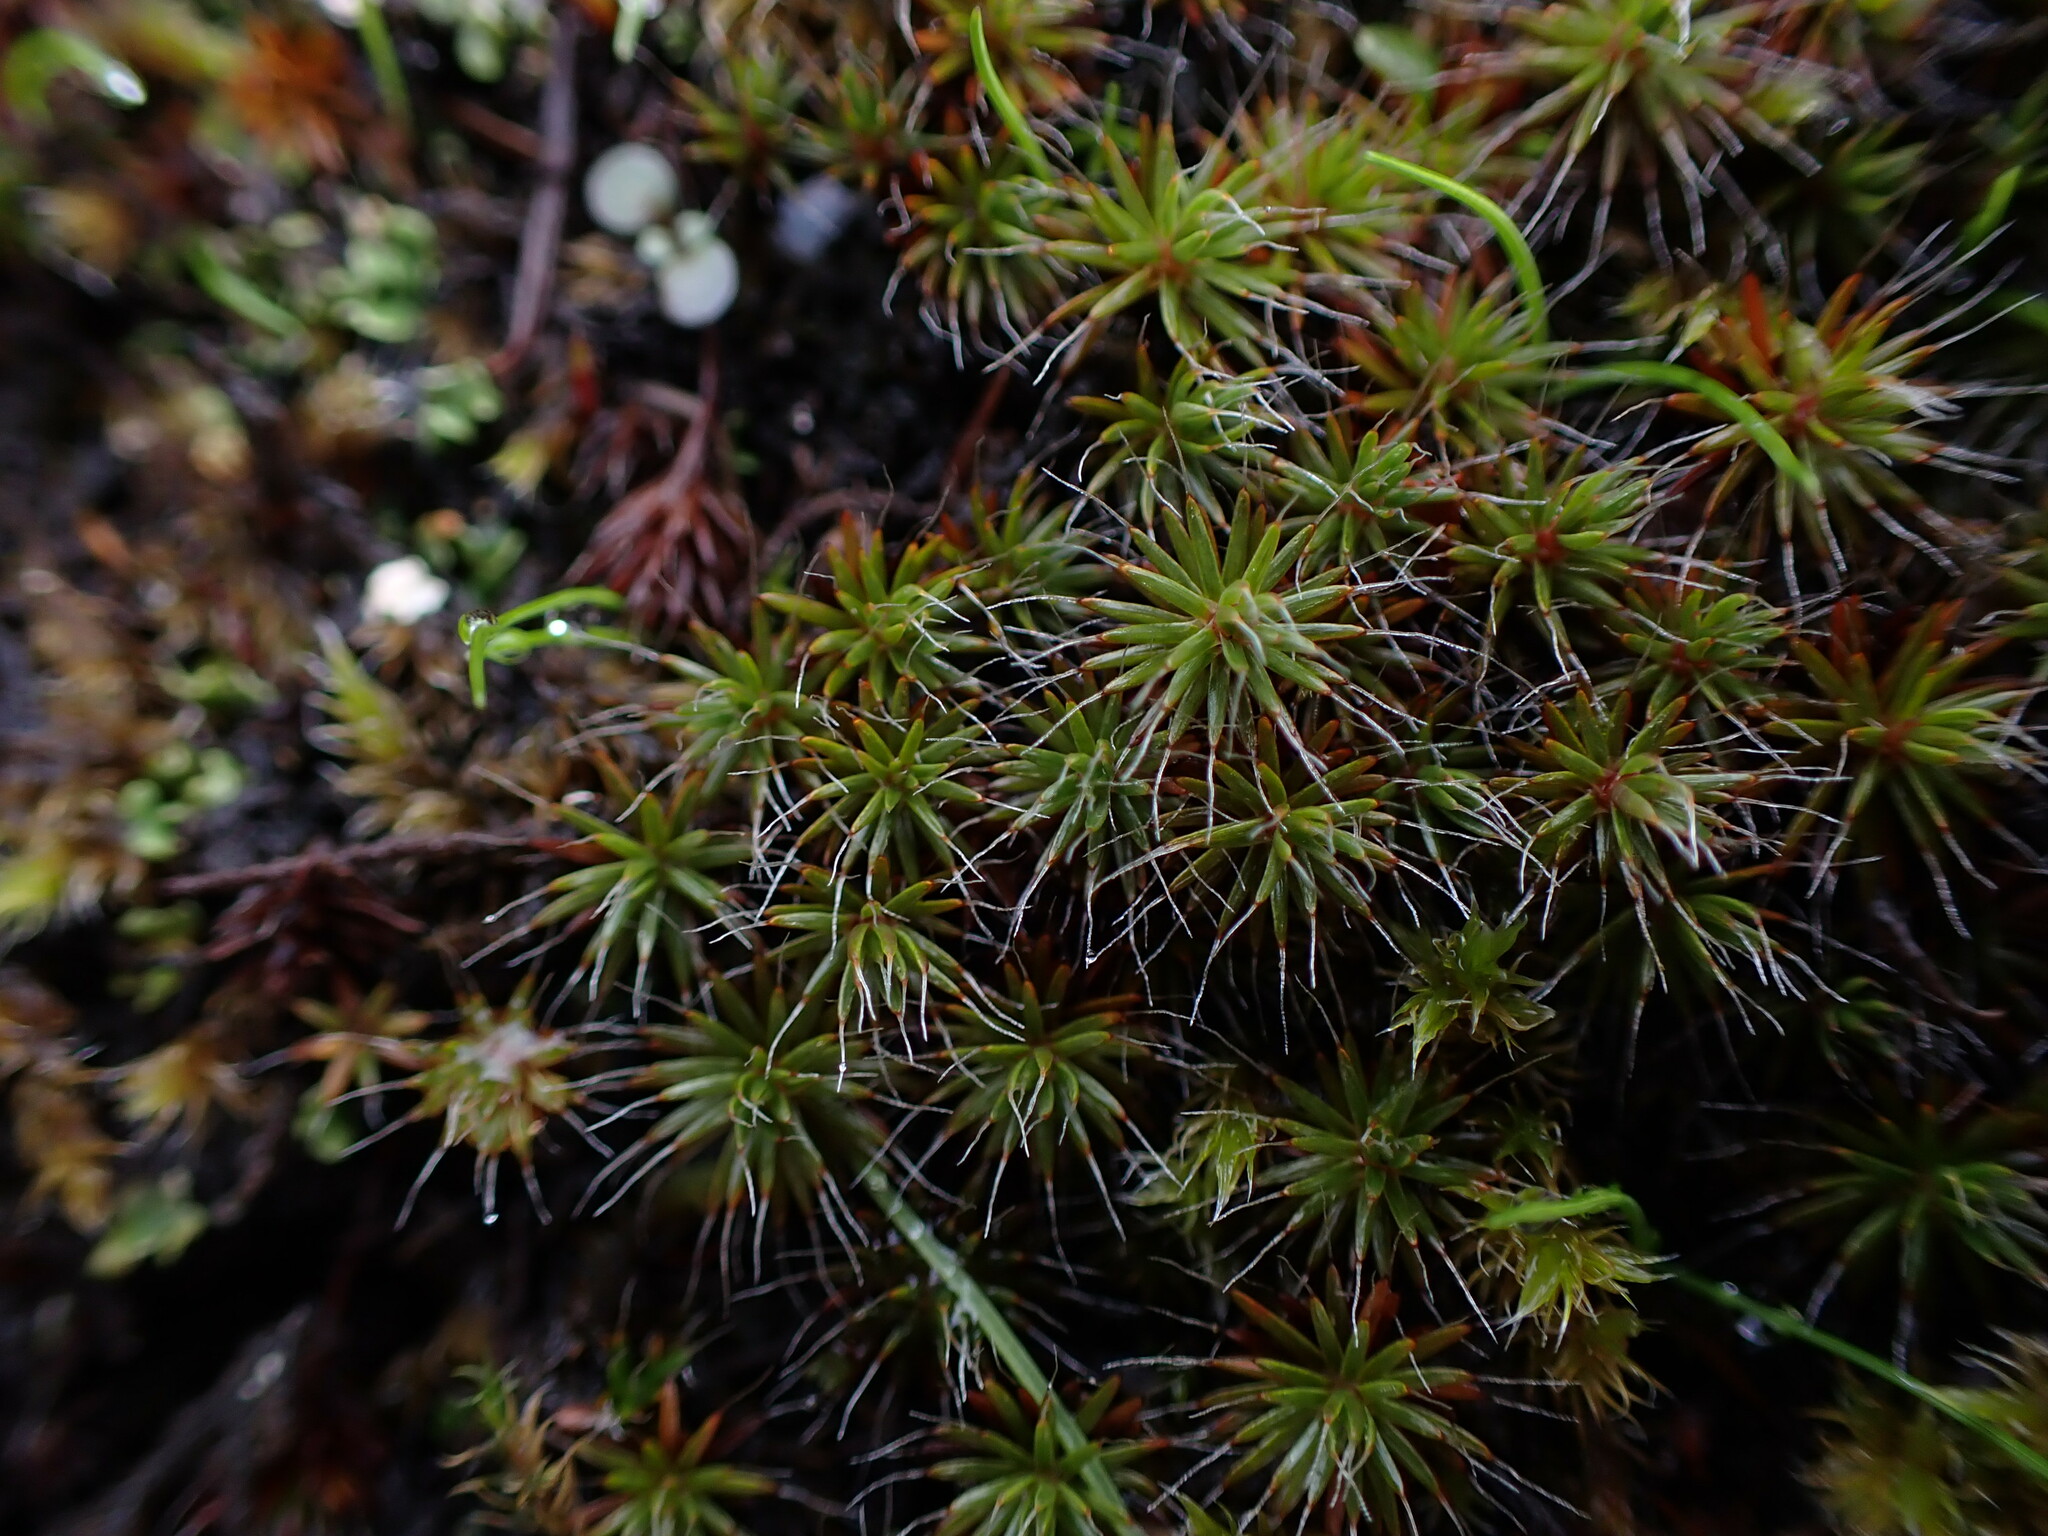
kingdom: Plantae
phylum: Bryophyta
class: Polytrichopsida
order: Polytrichales
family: Polytrichaceae
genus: Polytrichum
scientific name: Polytrichum piliferum
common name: Bristly haircap
